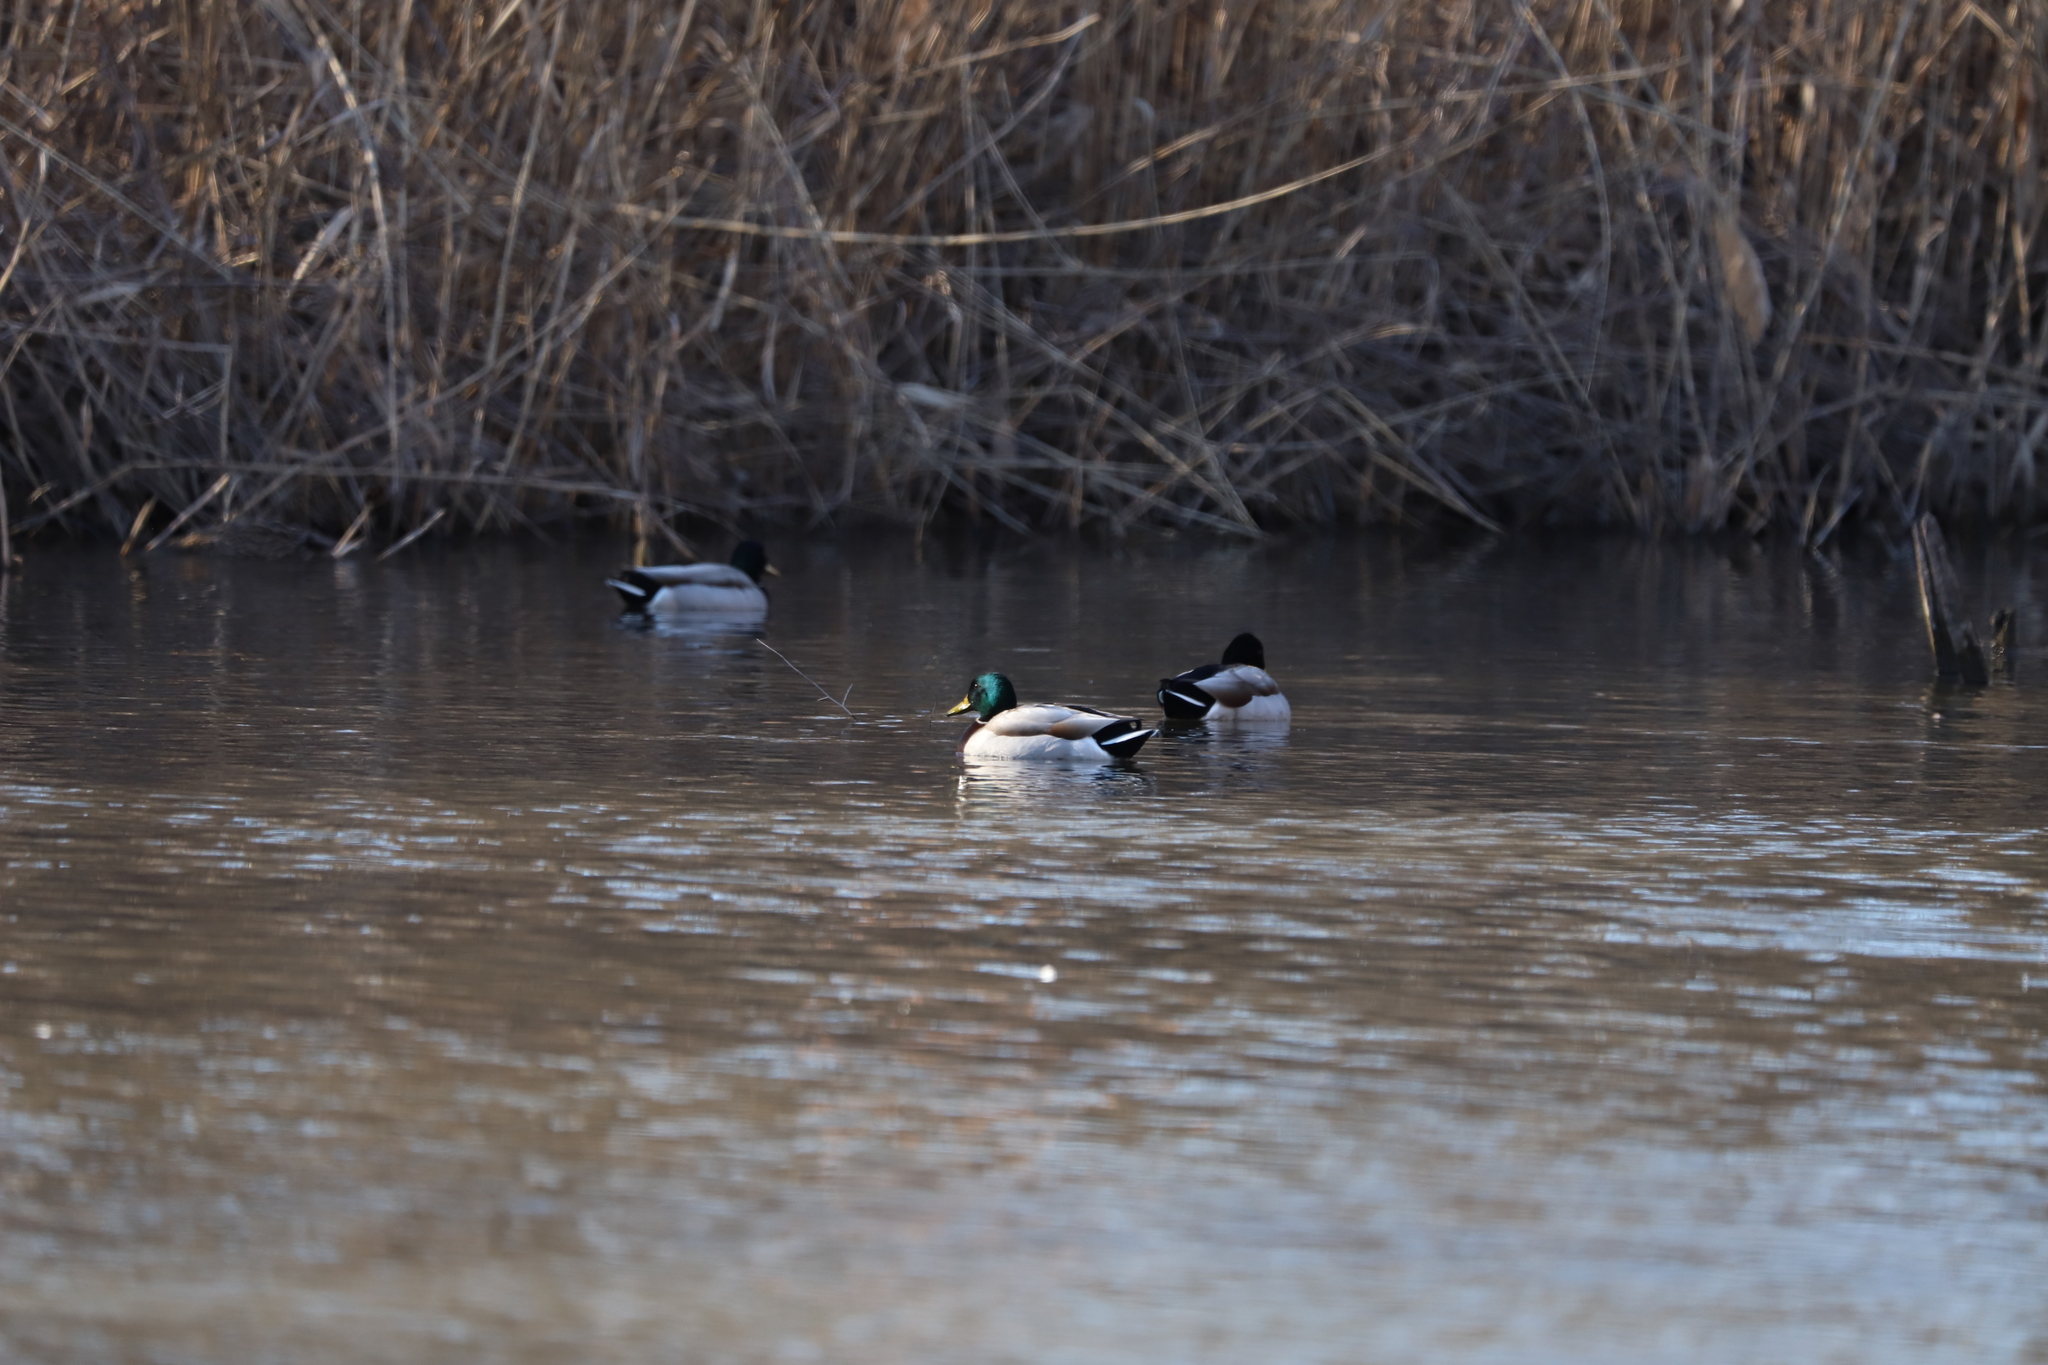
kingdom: Animalia
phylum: Chordata
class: Aves
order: Anseriformes
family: Anatidae
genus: Anas
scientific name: Anas platyrhynchos
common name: Mallard
